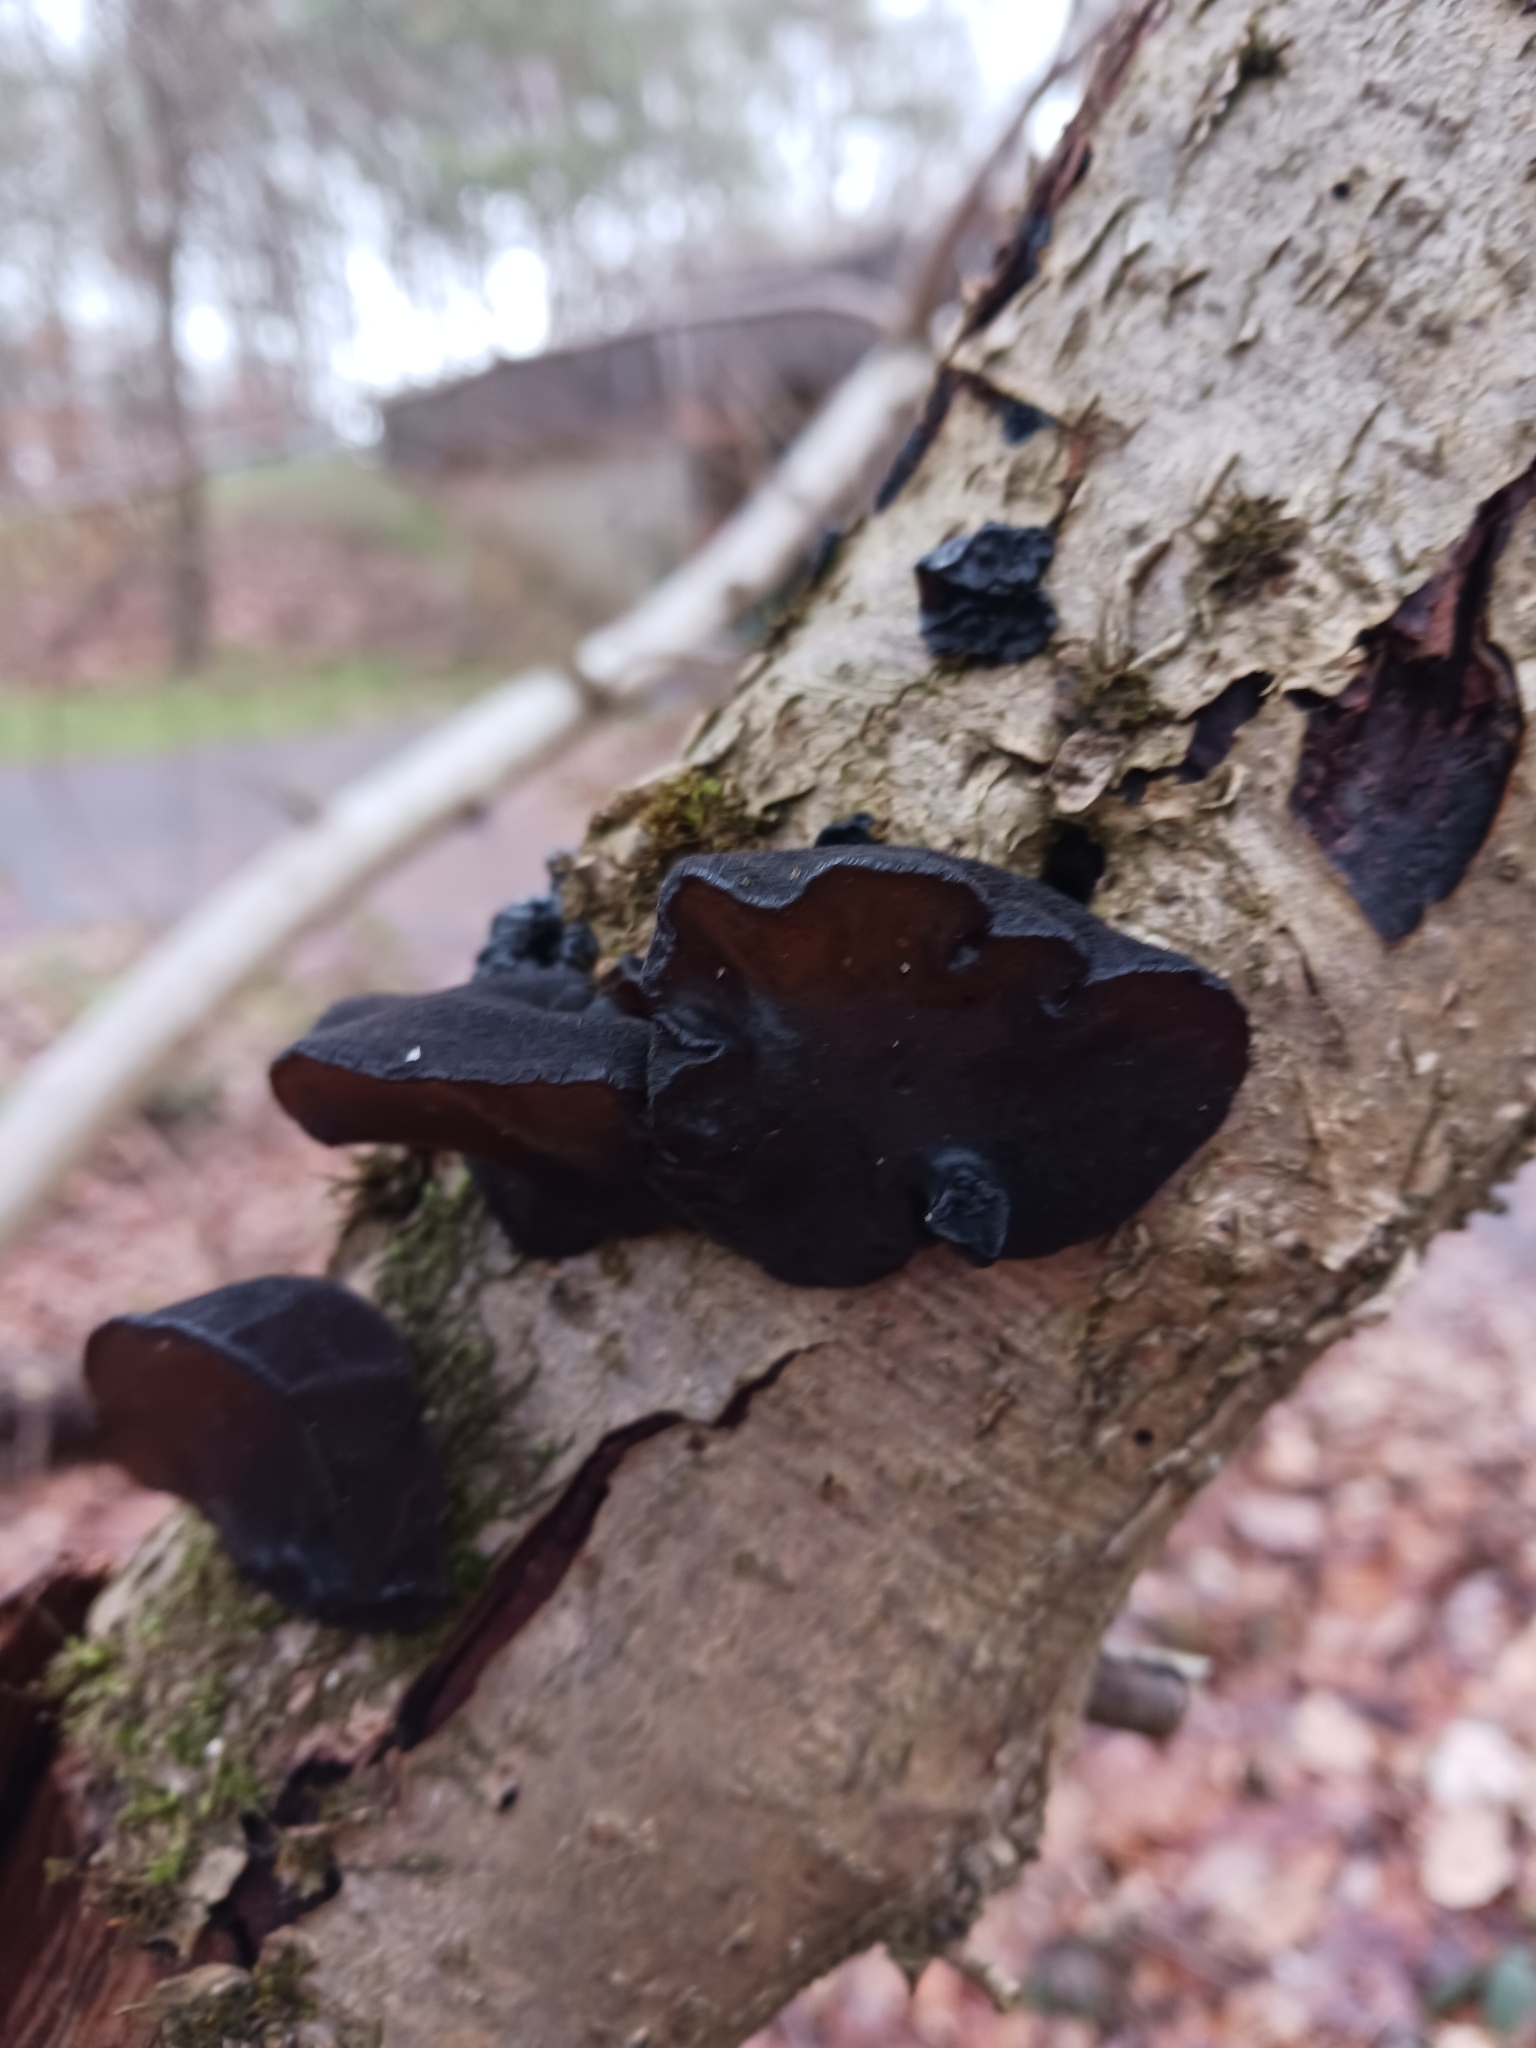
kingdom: Fungi
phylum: Basidiomycota
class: Agaricomycetes
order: Auriculariales
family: Auriculariaceae
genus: Exidia
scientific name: Exidia glandulosa
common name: Witches' butter
